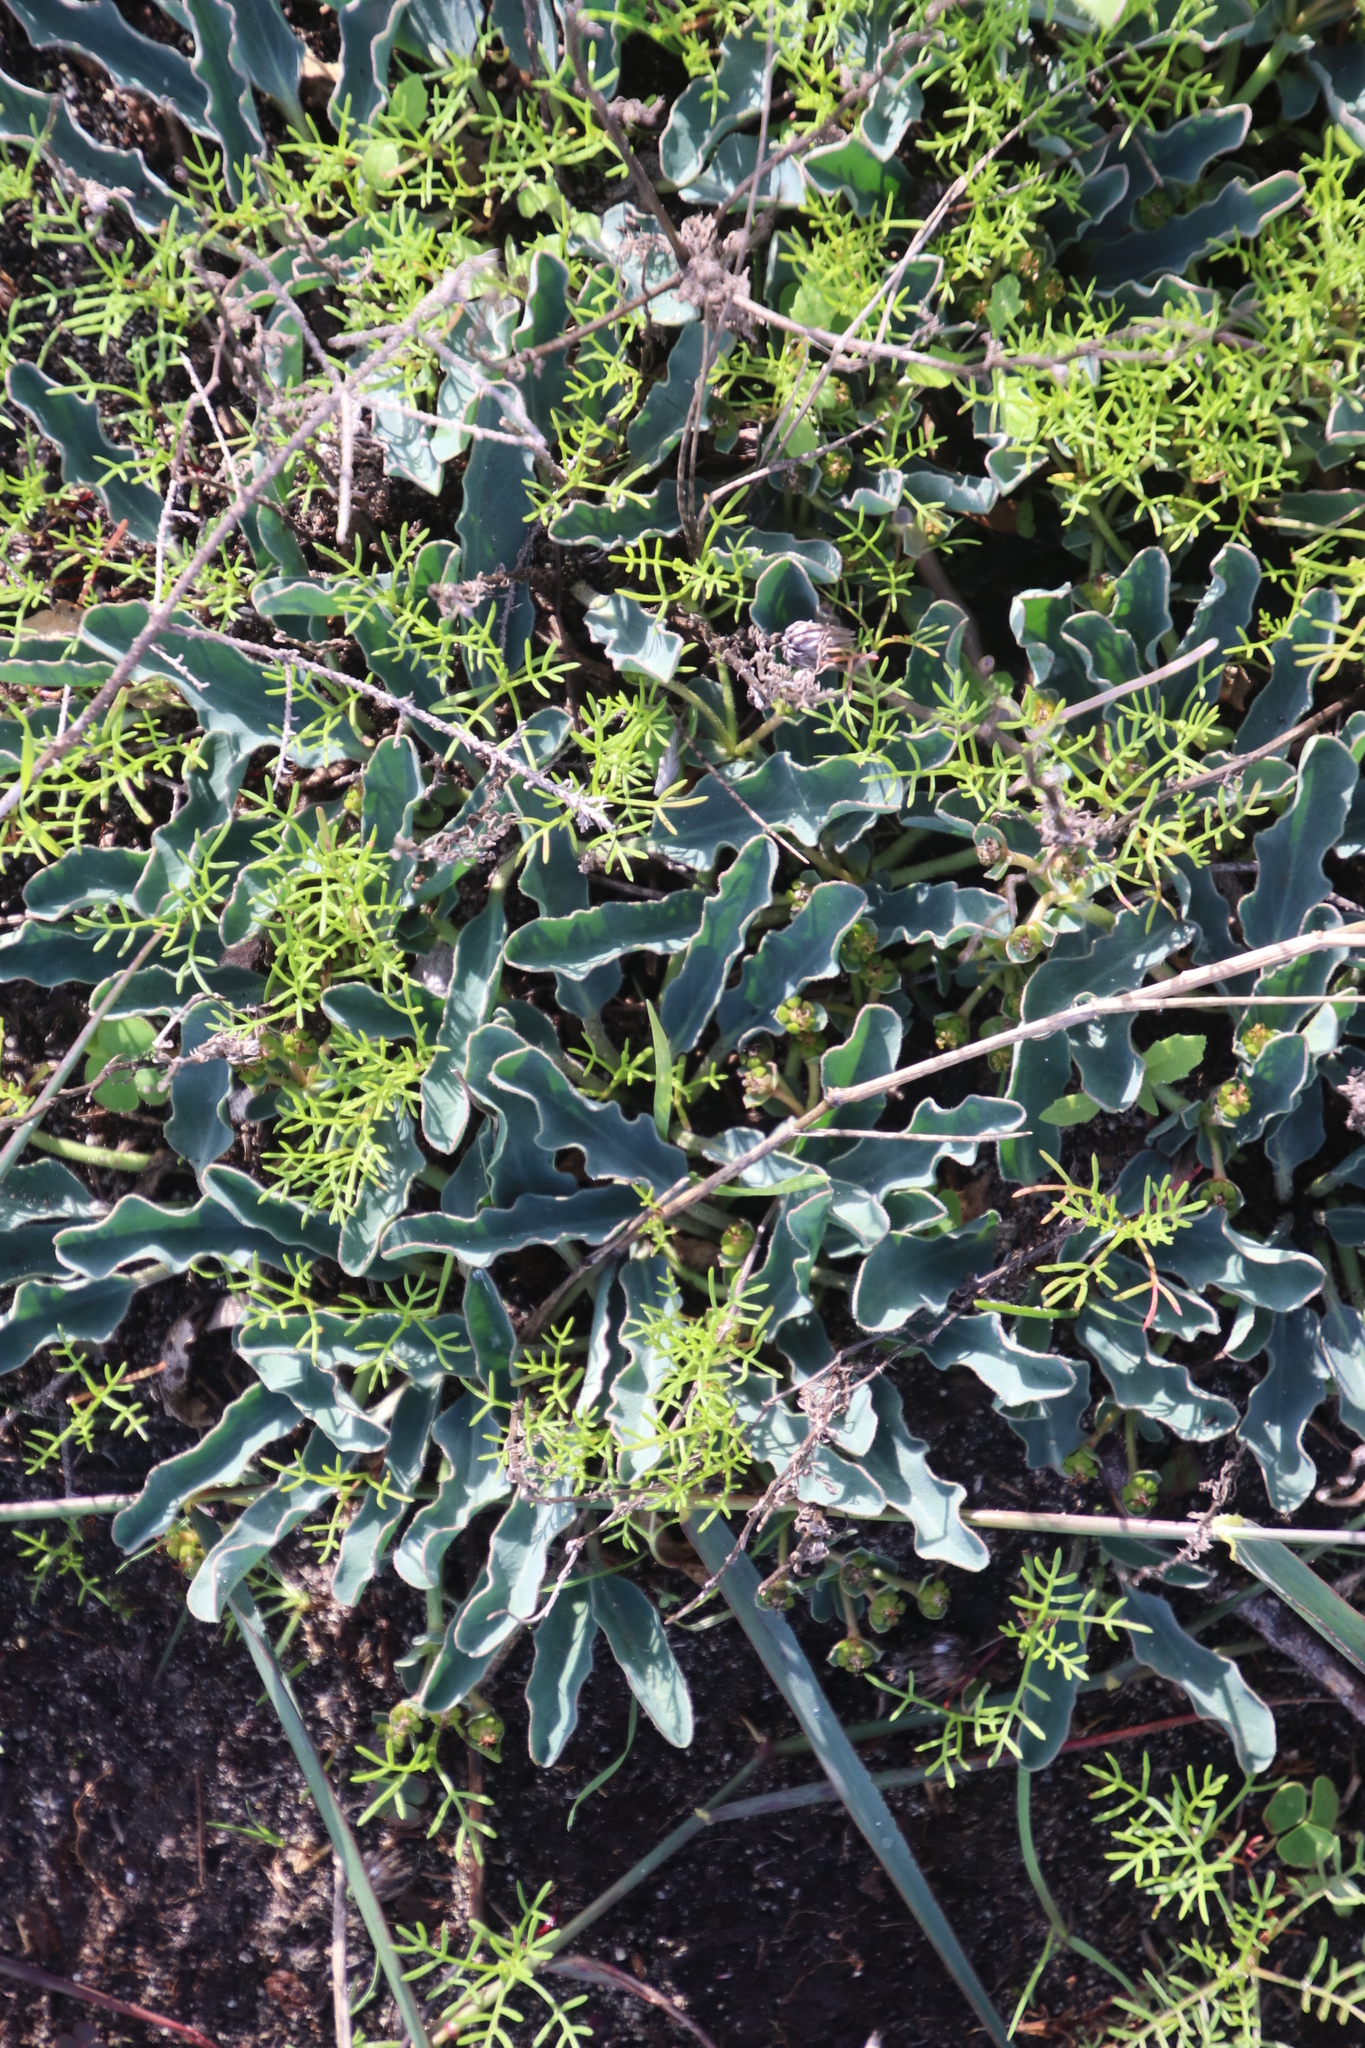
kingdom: Plantae
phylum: Tracheophyta
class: Magnoliopsida
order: Malpighiales
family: Euphorbiaceae
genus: Euphorbia
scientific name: Euphorbia tuberosa
